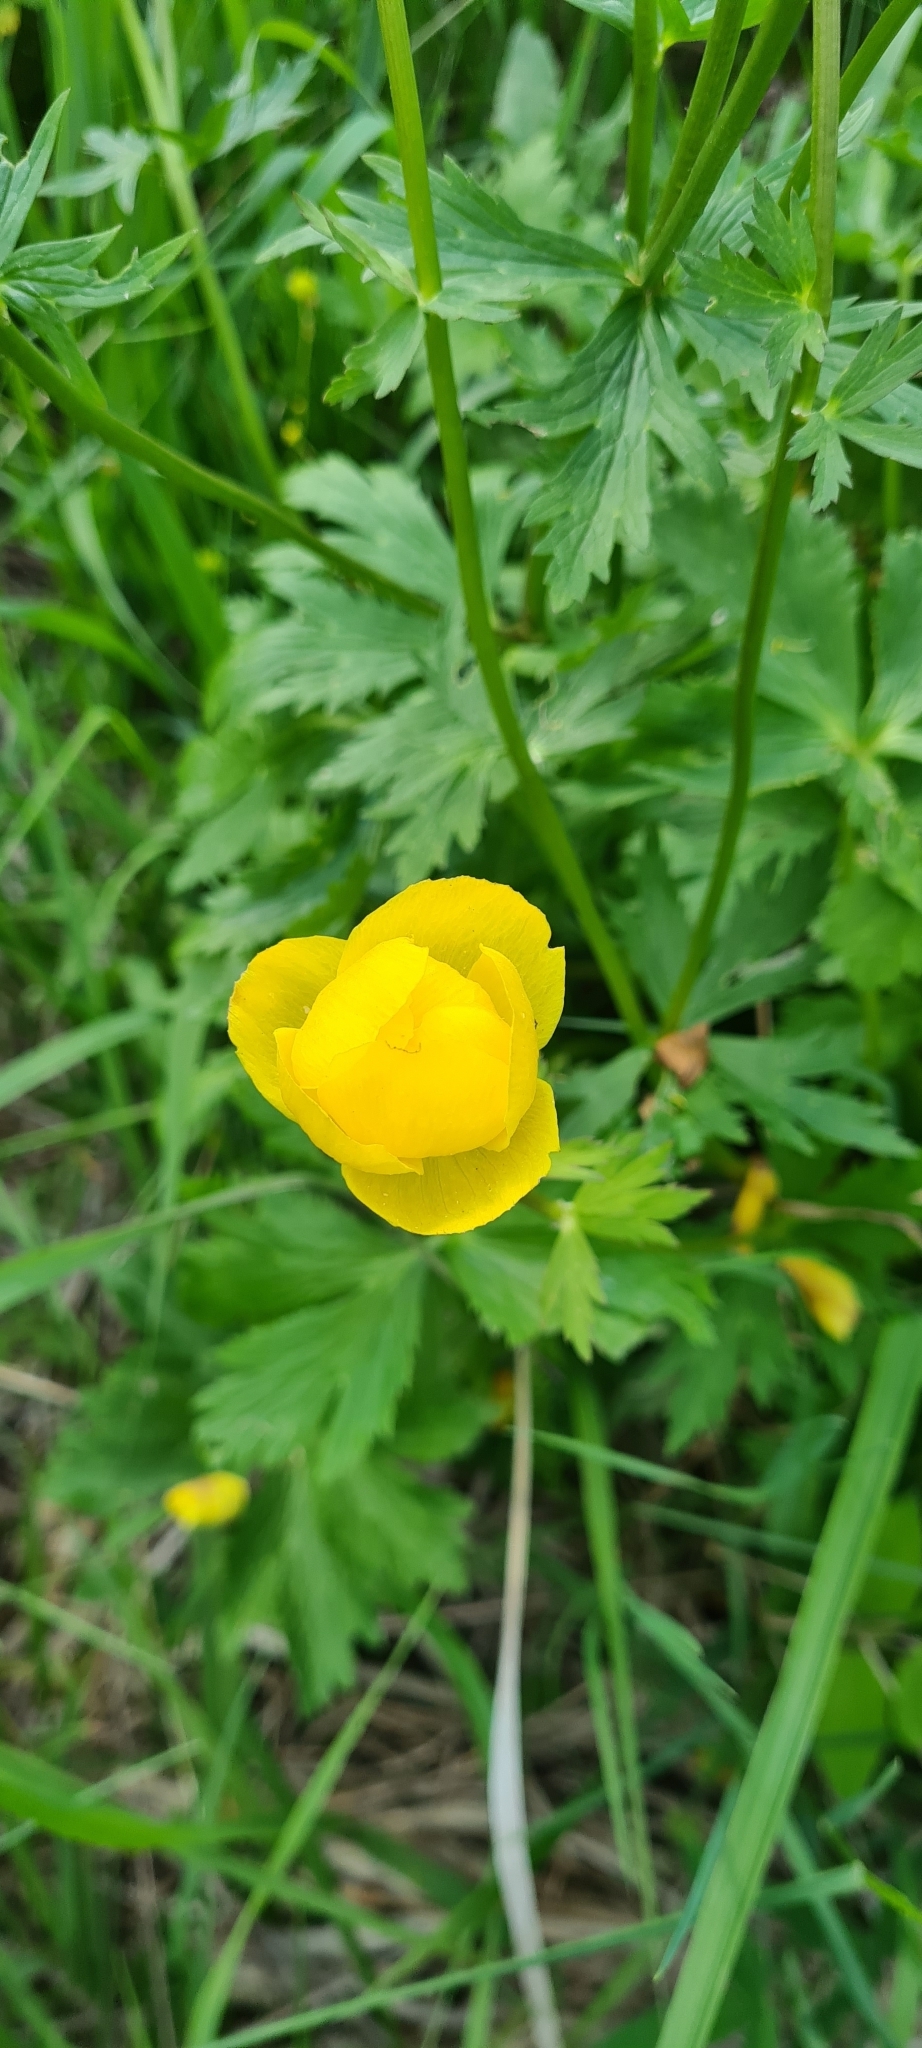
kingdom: Plantae
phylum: Tracheophyta
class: Magnoliopsida
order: Ranunculales
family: Ranunculaceae
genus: Trollius
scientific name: Trollius europaeus
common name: European globeflower
